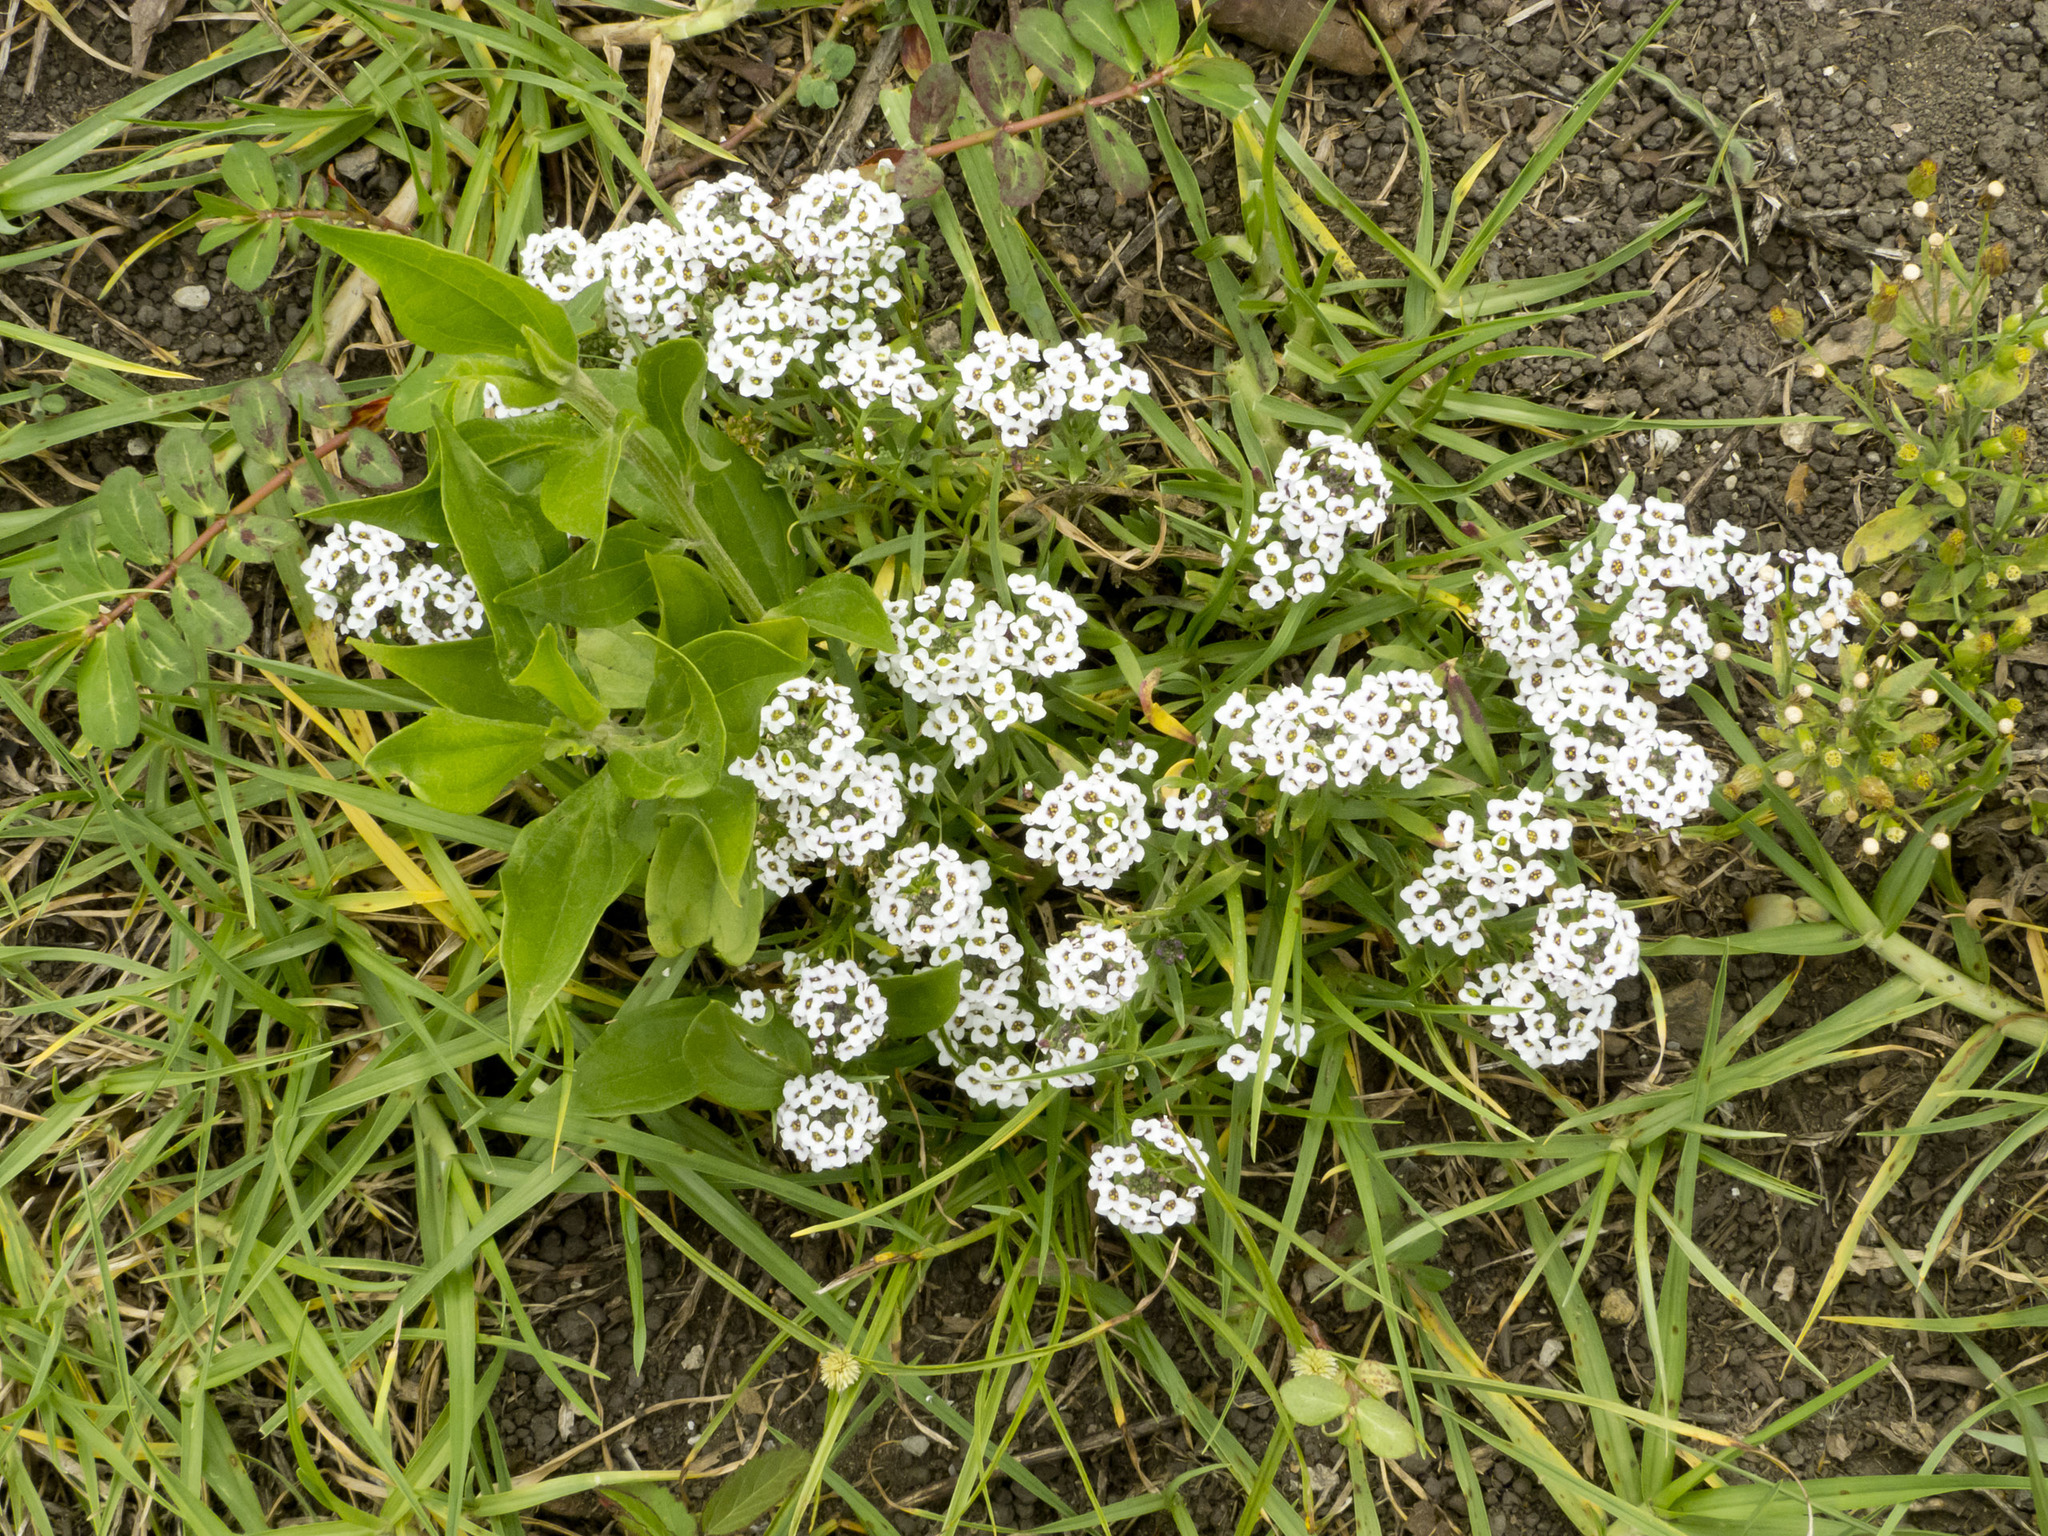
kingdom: Plantae
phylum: Tracheophyta
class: Magnoliopsida
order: Brassicales
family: Brassicaceae
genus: Lobularia
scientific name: Lobularia maritima
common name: Sweet alison
